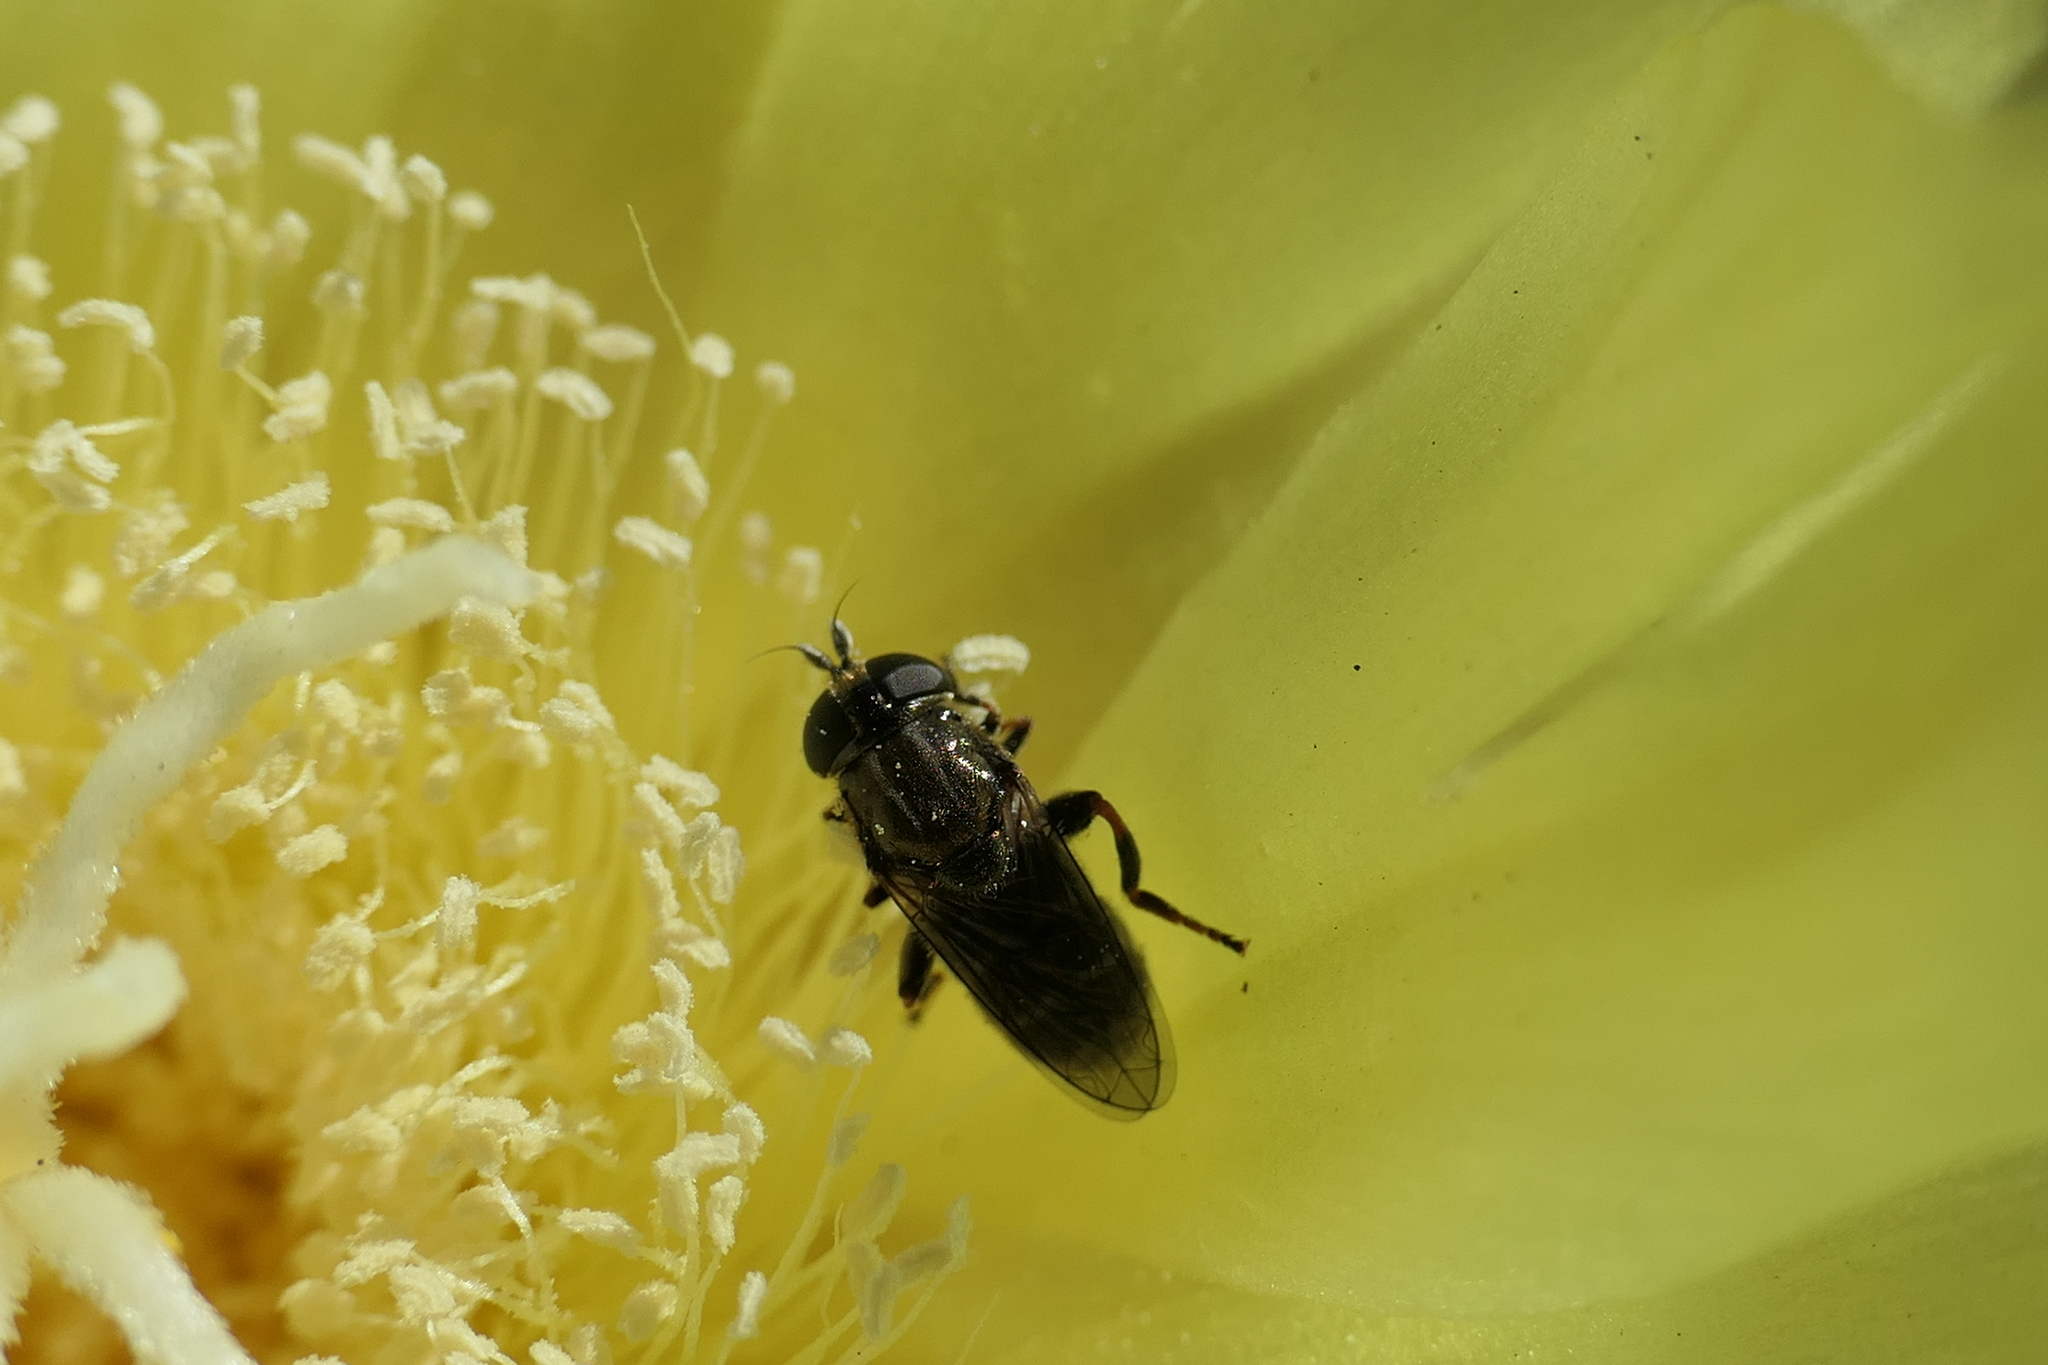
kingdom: Animalia
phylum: Arthropoda
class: Insecta
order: Diptera
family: Syrphidae
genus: Eumerus
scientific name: Eumerus
